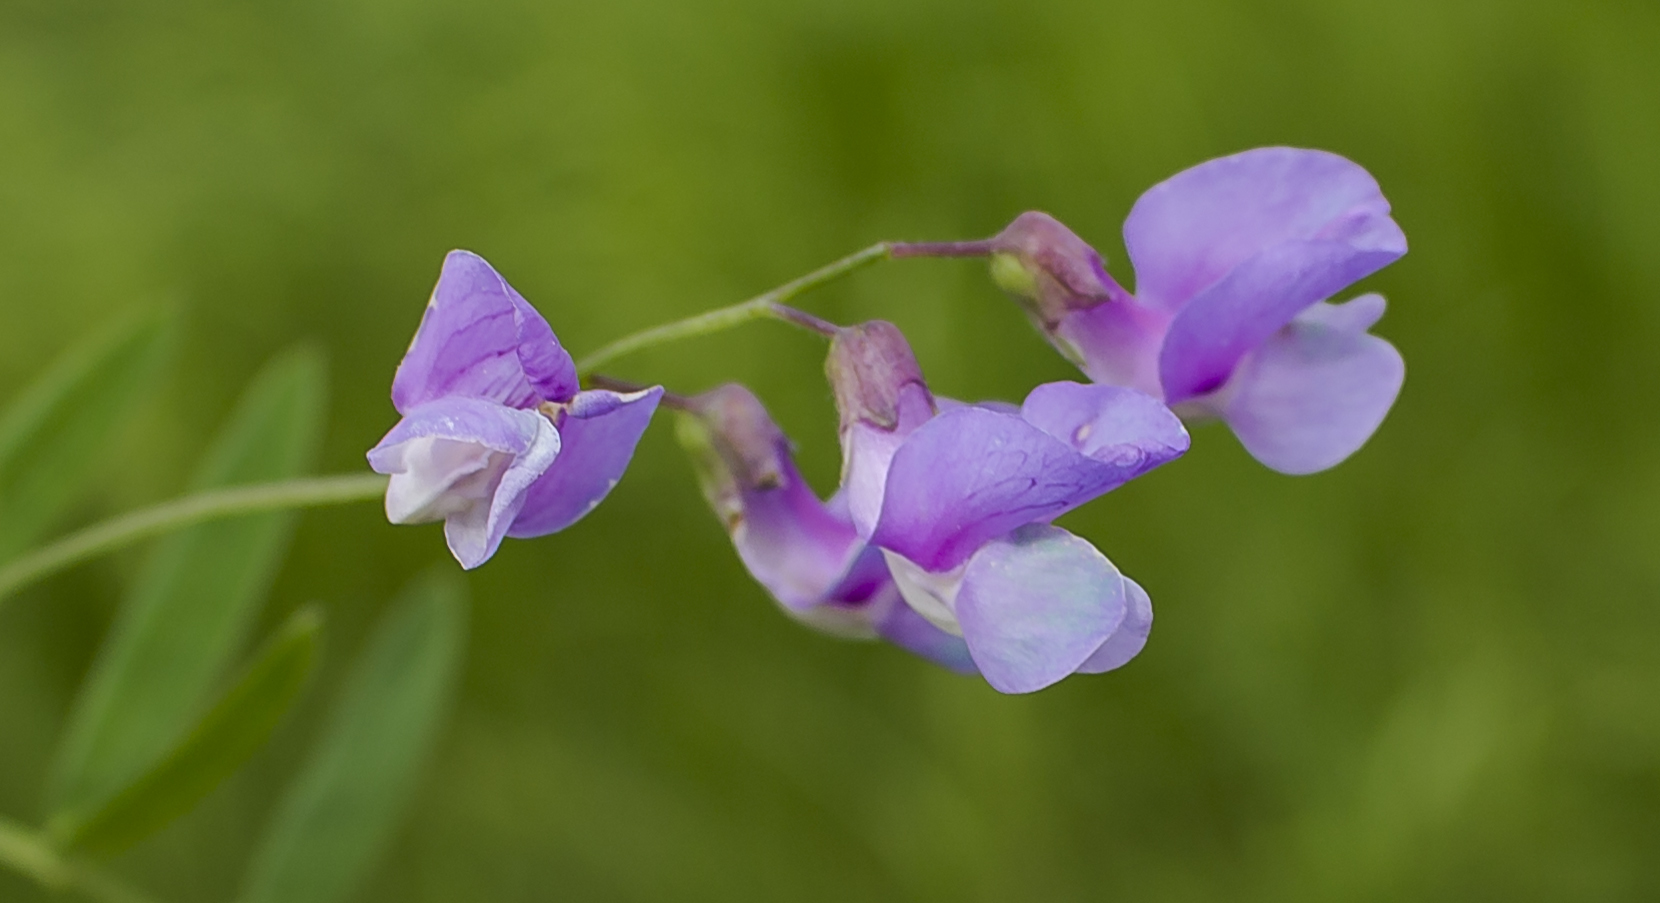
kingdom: Plantae
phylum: Tracheophyta
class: Magnoliopsida
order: Fabales
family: Fabaceae
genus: Lathyrus
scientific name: Lathyrus palustris
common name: Marsh pea
